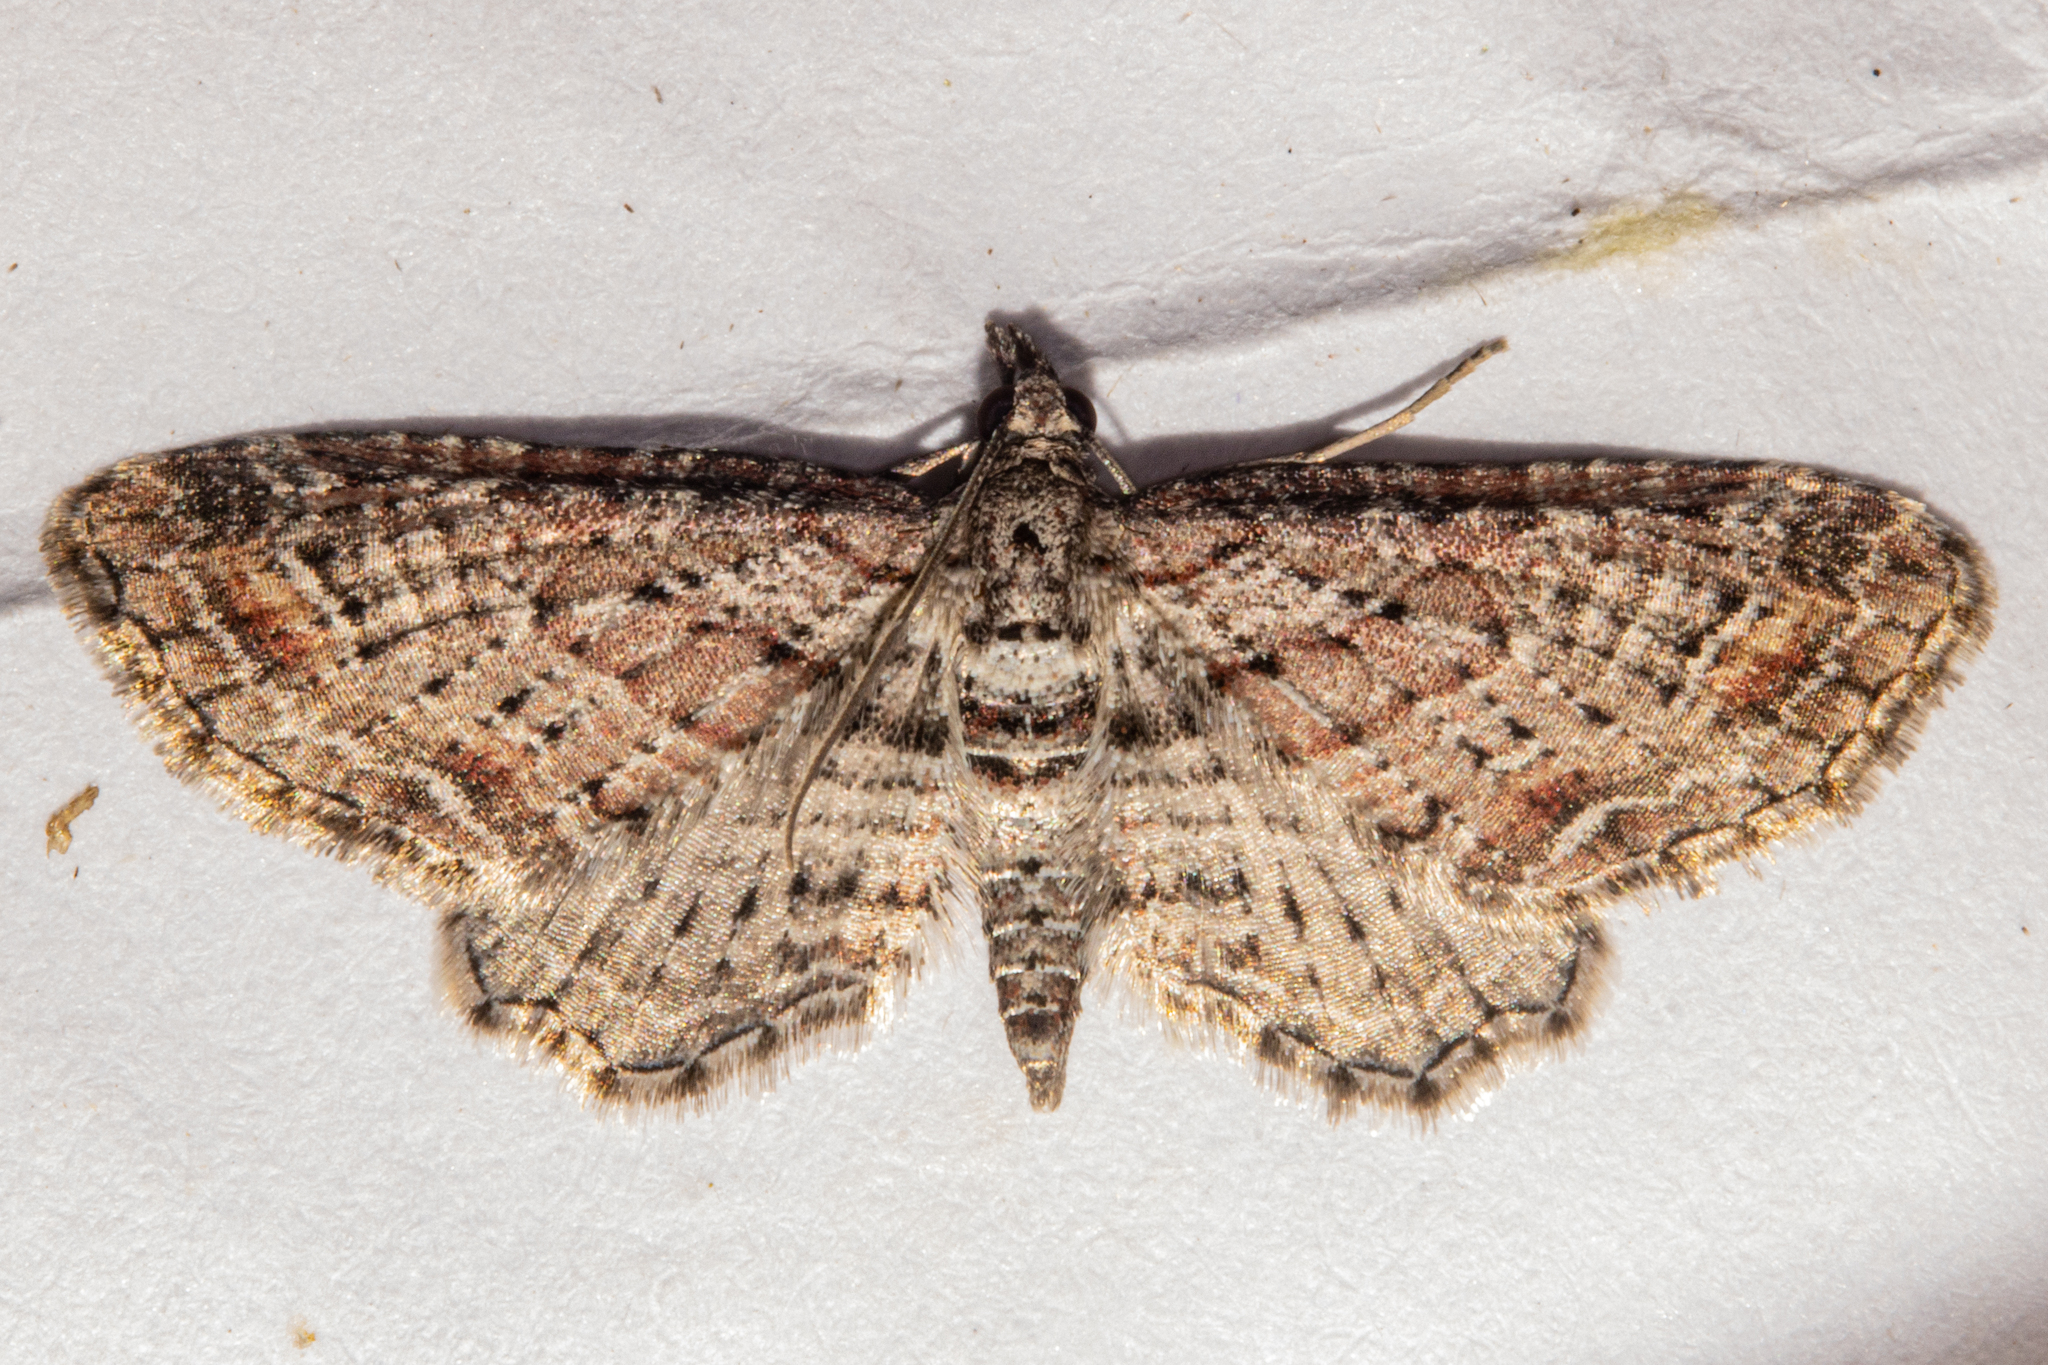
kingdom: Animalia
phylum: Arthropoda
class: Insecta
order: Lepidoptera
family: Geometridae
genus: Pasiphila
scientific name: Pasiphila humilis
